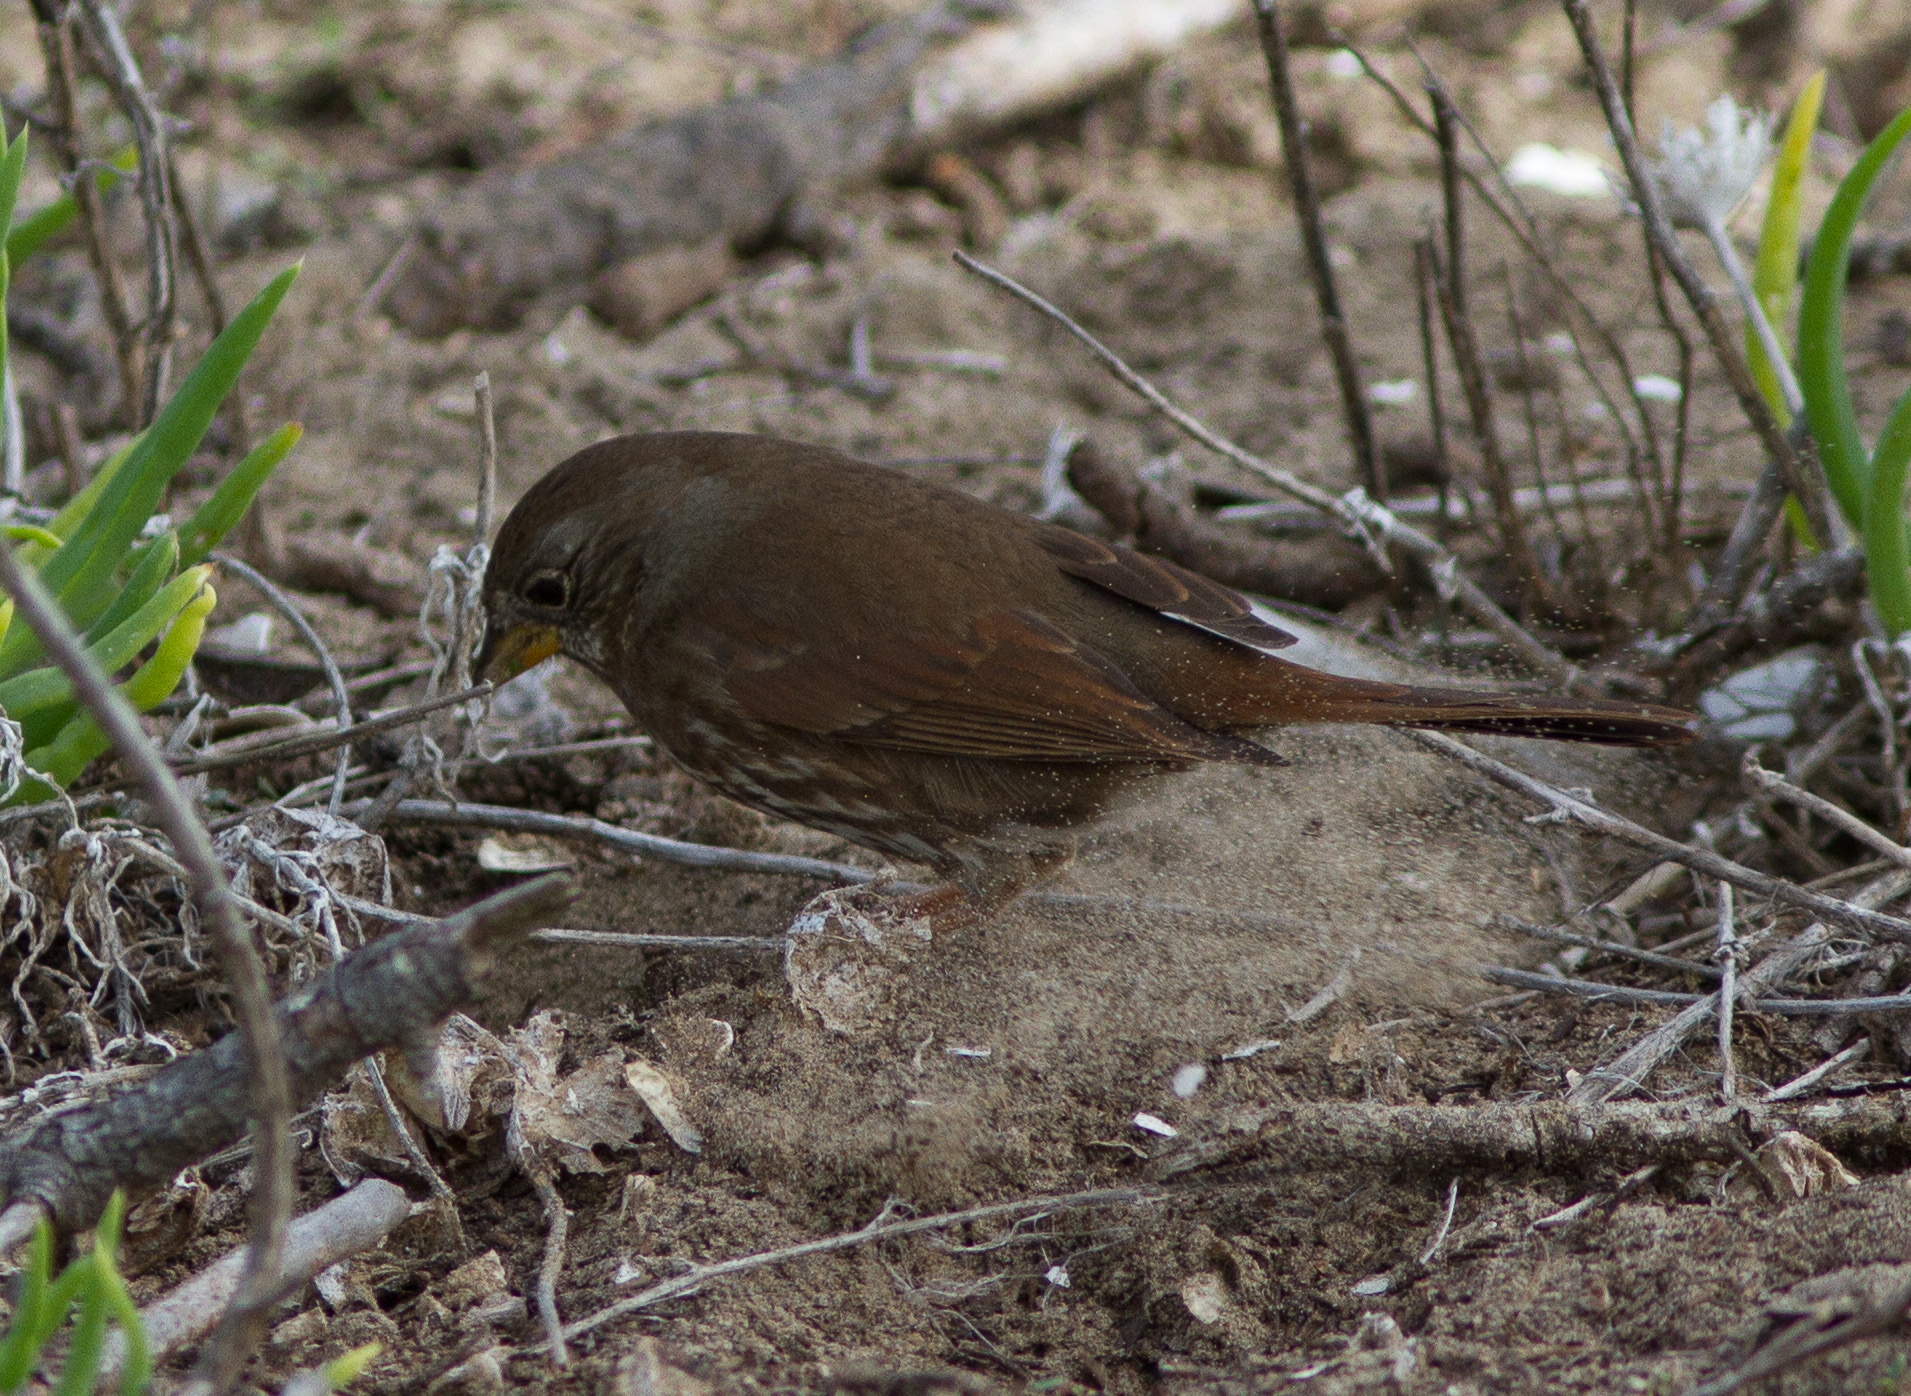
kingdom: Animalia
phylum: Chordata
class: Aves
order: Passeriformes
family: Passerellidae
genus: Passerella
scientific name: Passerella iliaca
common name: Fox sparrow
